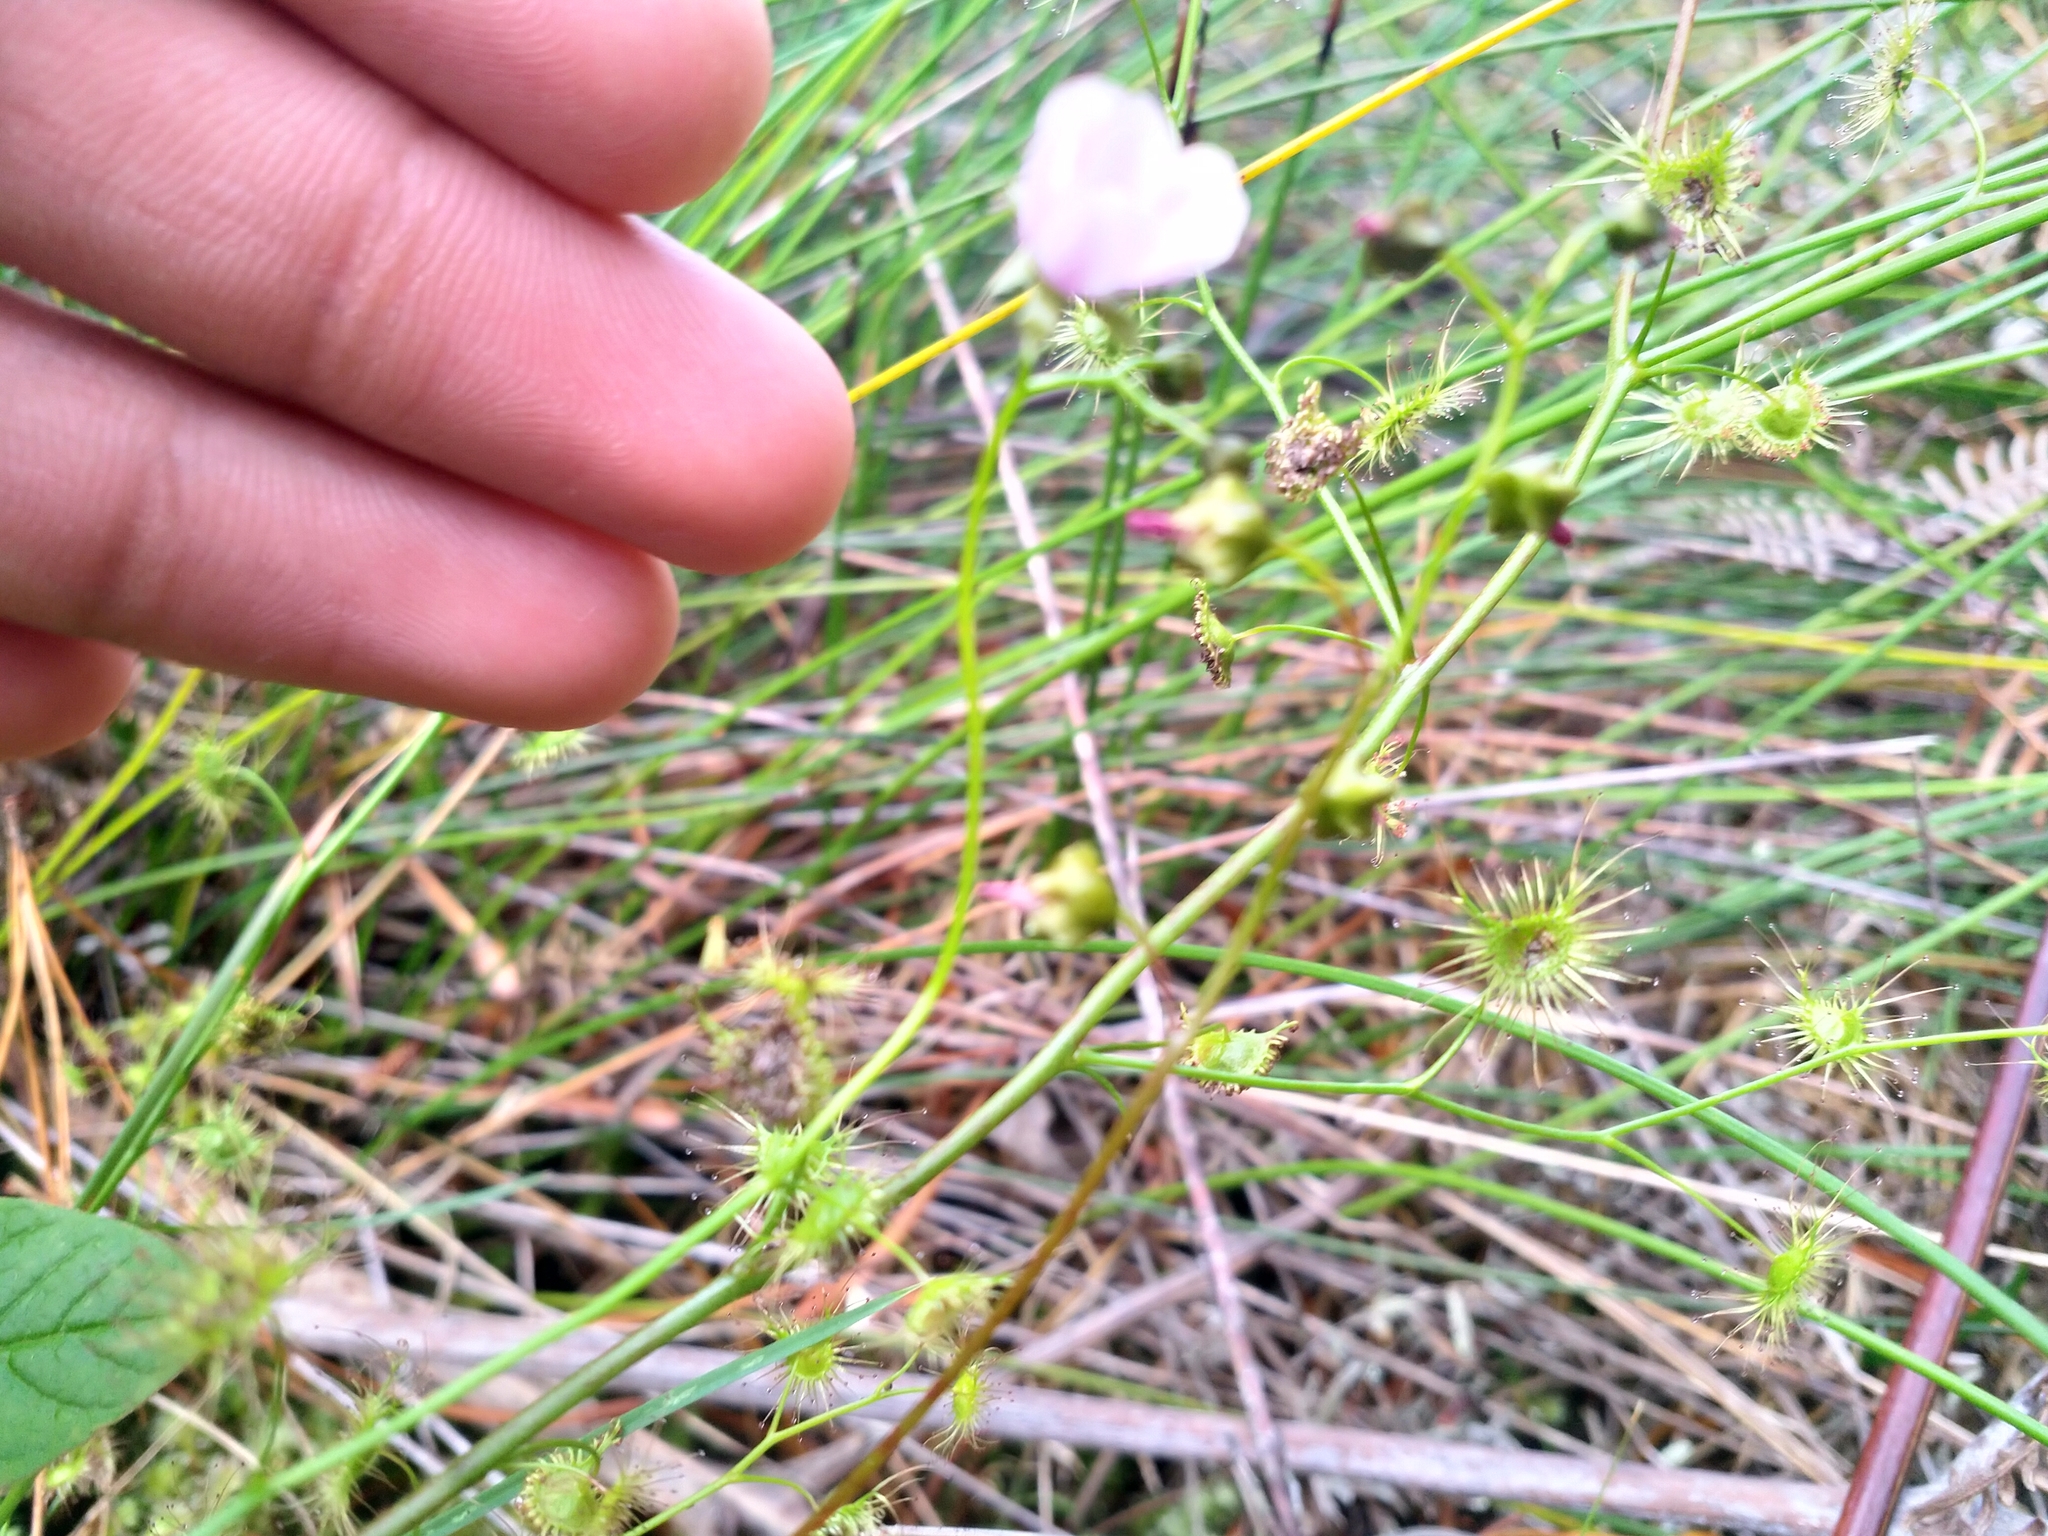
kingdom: Plantae
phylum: Tracheophyta
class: Magnoliopsida
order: Caryophyllales
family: Droseraceae
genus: Drosera
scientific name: Drosera peltata
